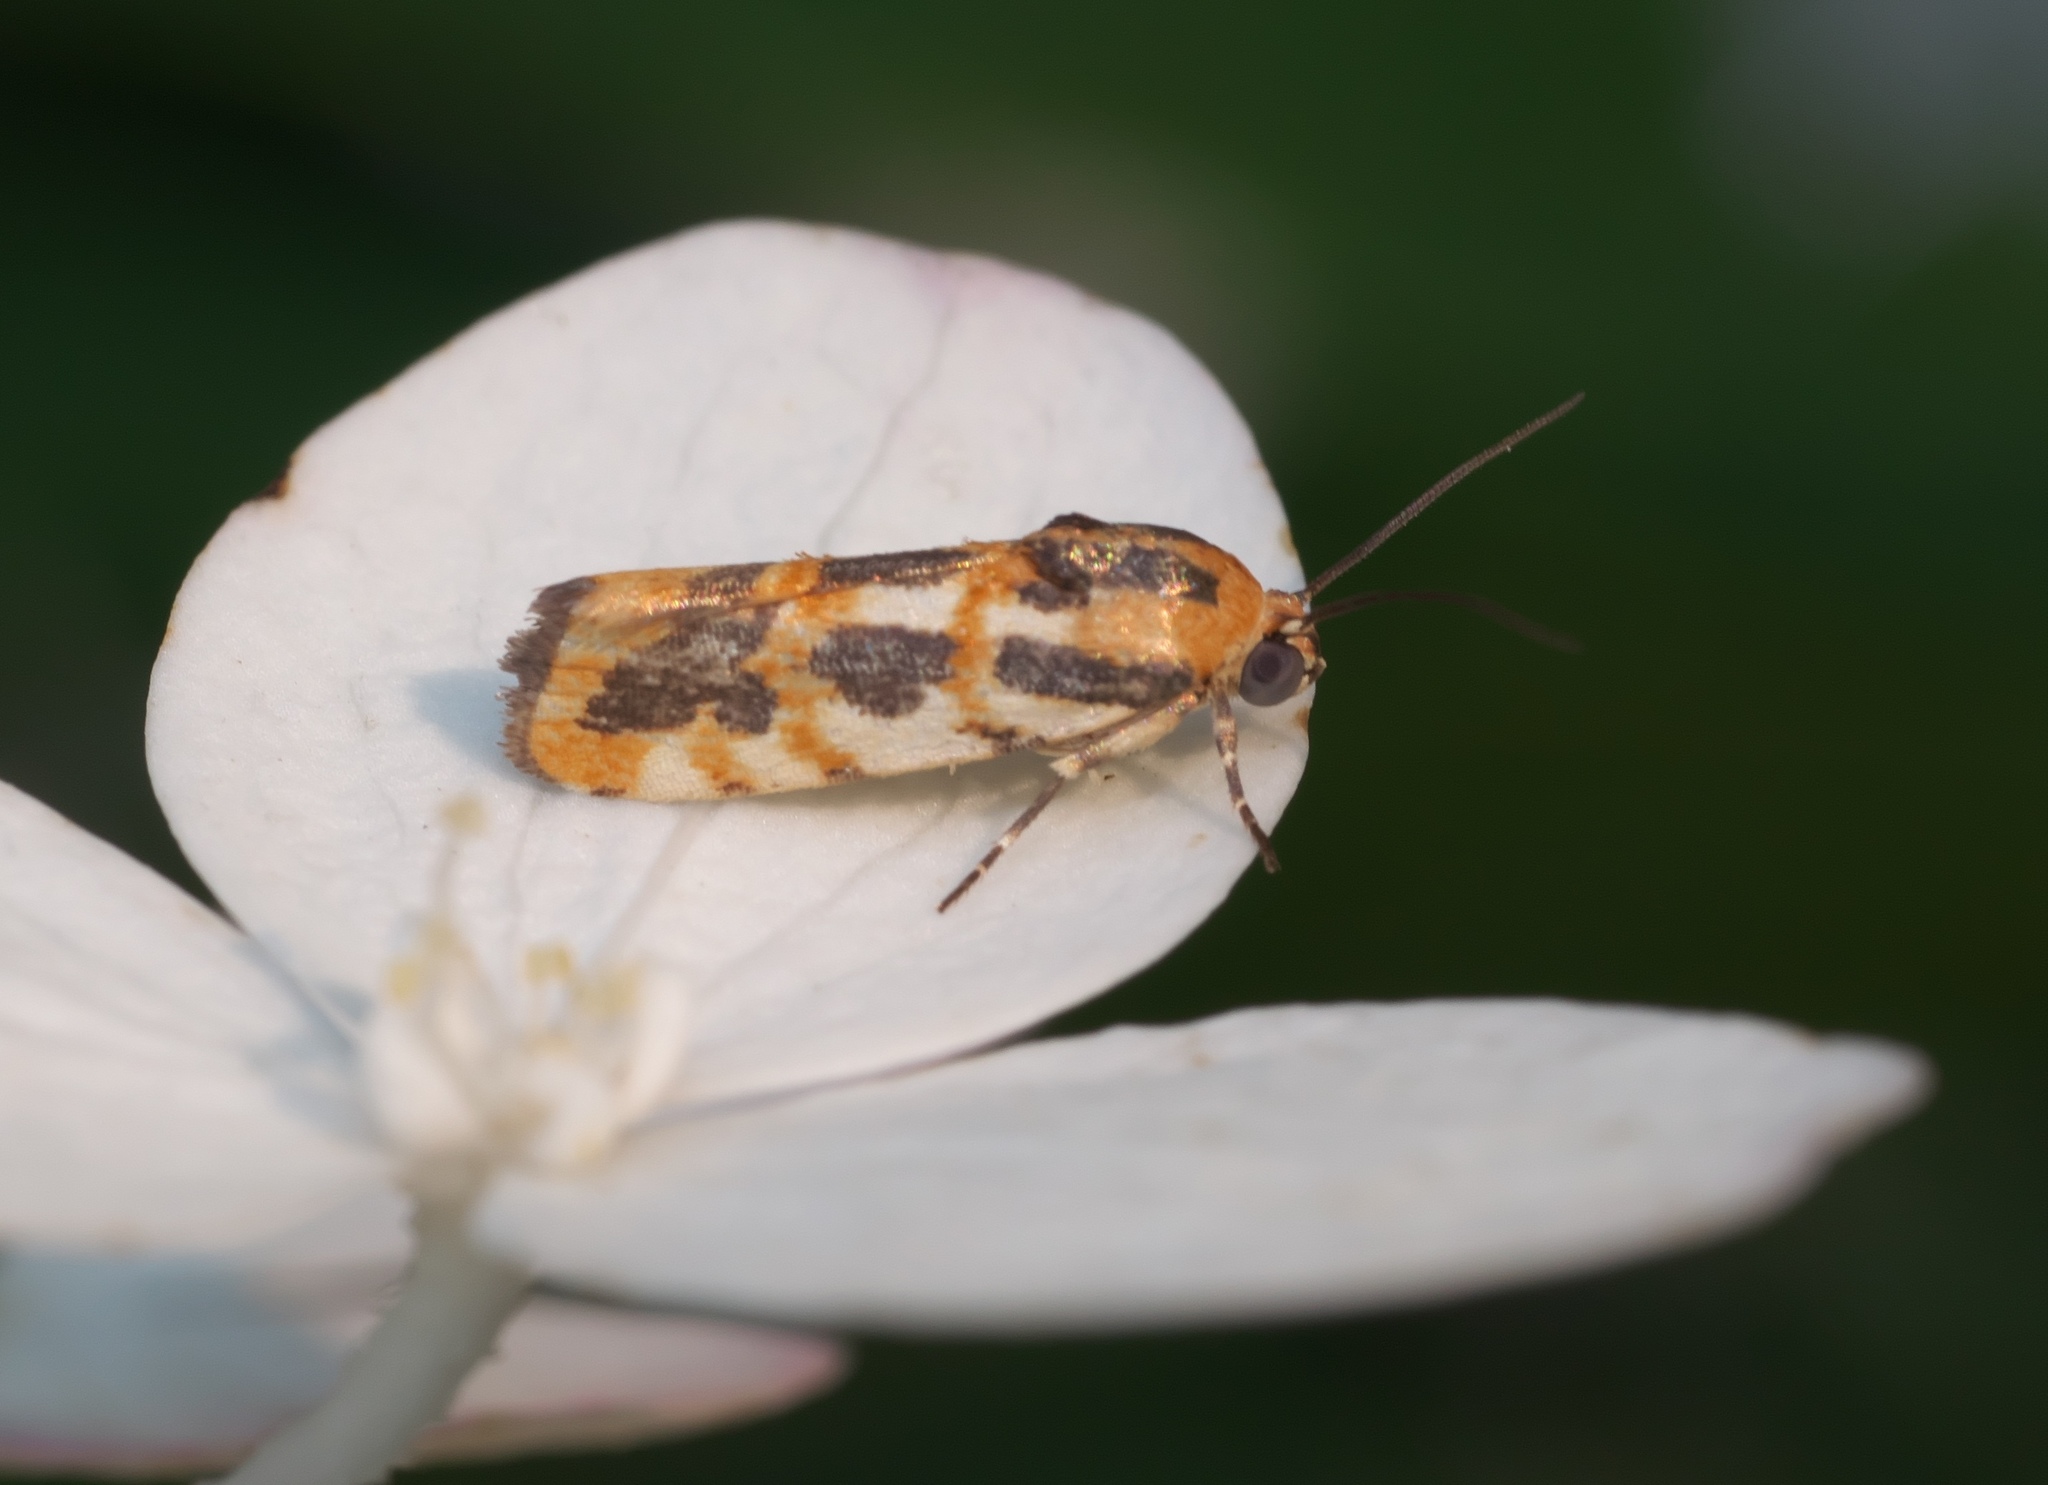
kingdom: Animalia
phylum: Arthropoda
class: Insecta
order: Lepidoptera
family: Noctuidae
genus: Acontia
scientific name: Acontia leo
